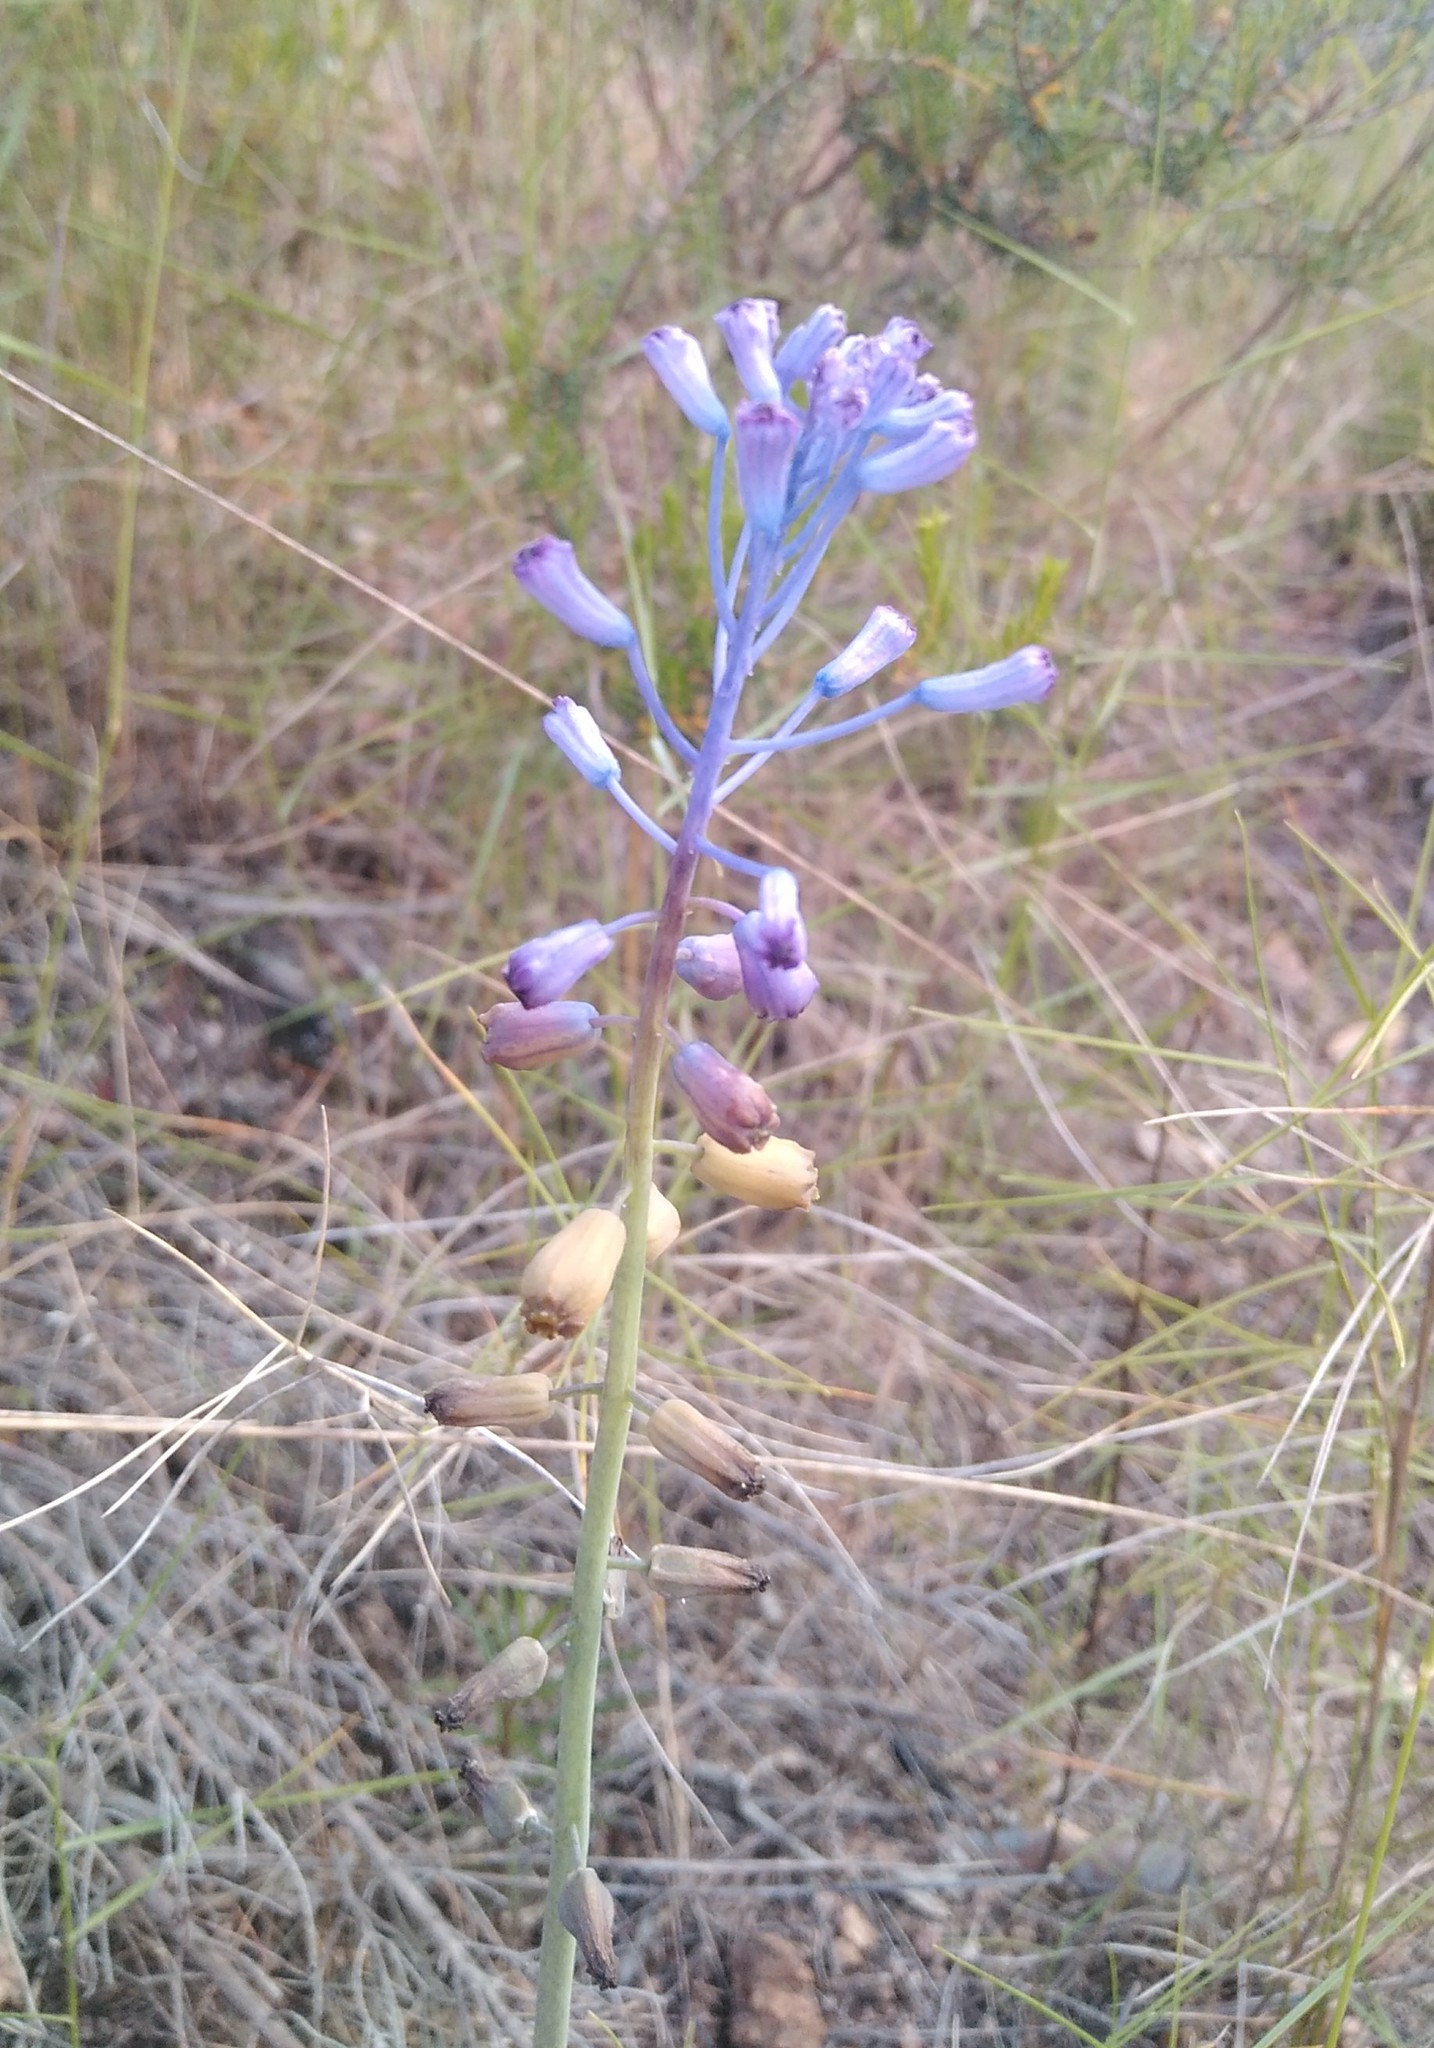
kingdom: Plantae
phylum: Tracheophyta
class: Liliopsida
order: Asparagales
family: Asparagaceae
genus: Muscari
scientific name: Muscari matritense
